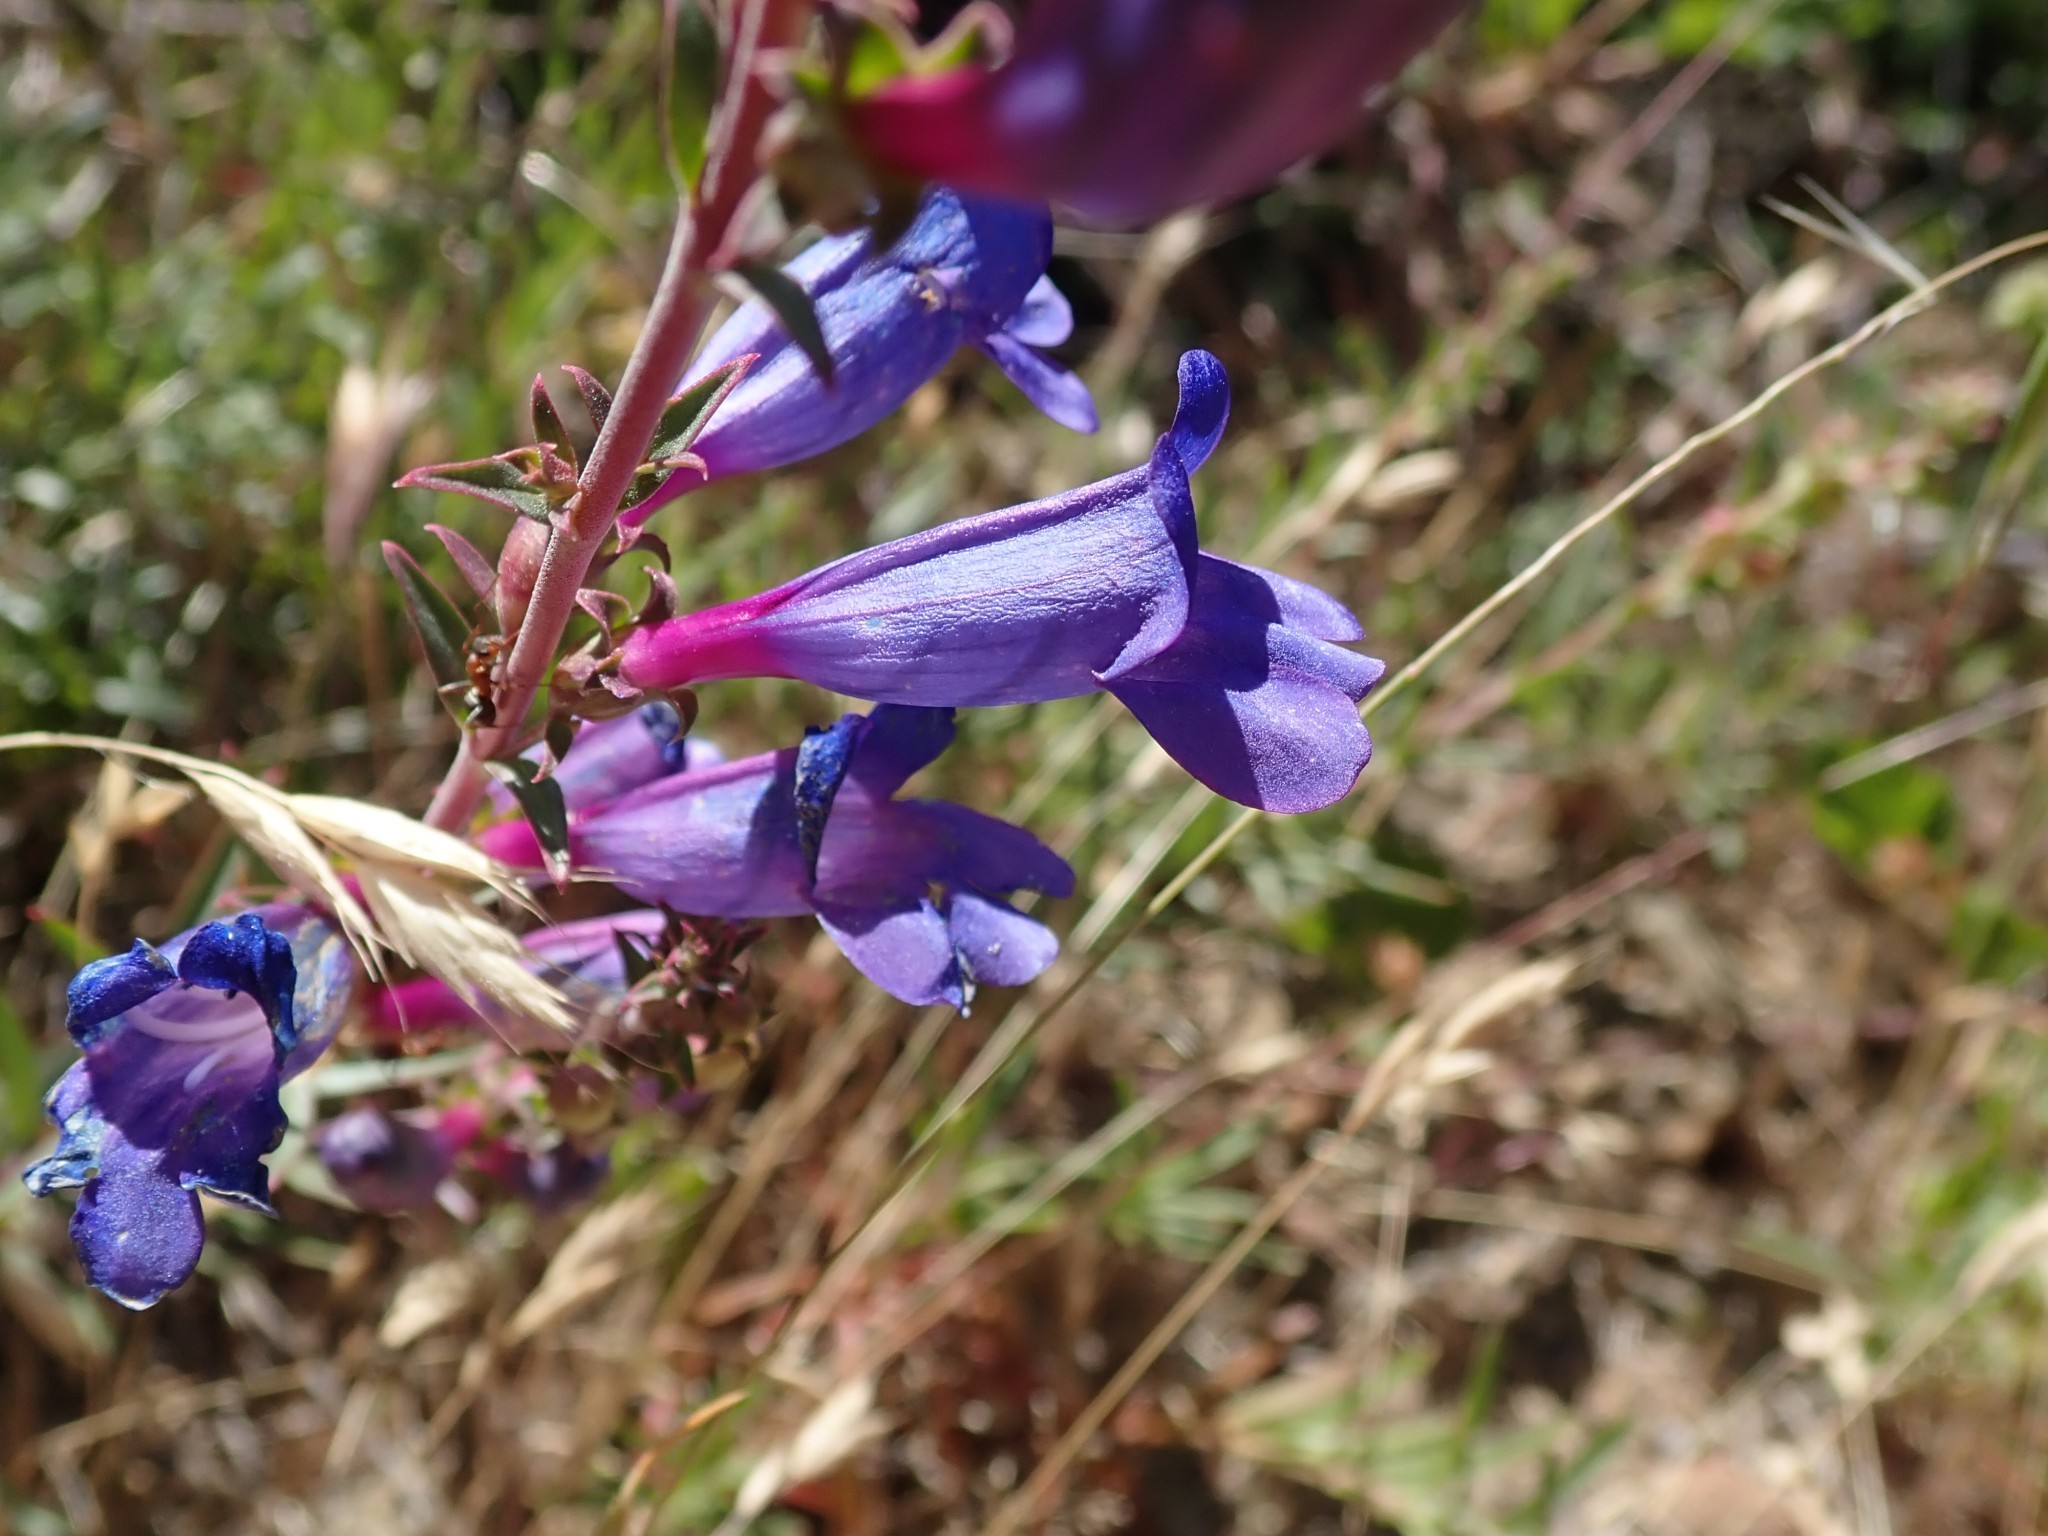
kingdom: Plantae
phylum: Tracheophyta
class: Magnoliopsida
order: Lamiales
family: Plantaginaceae
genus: Penstemon
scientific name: Penstemon heterophyllus
